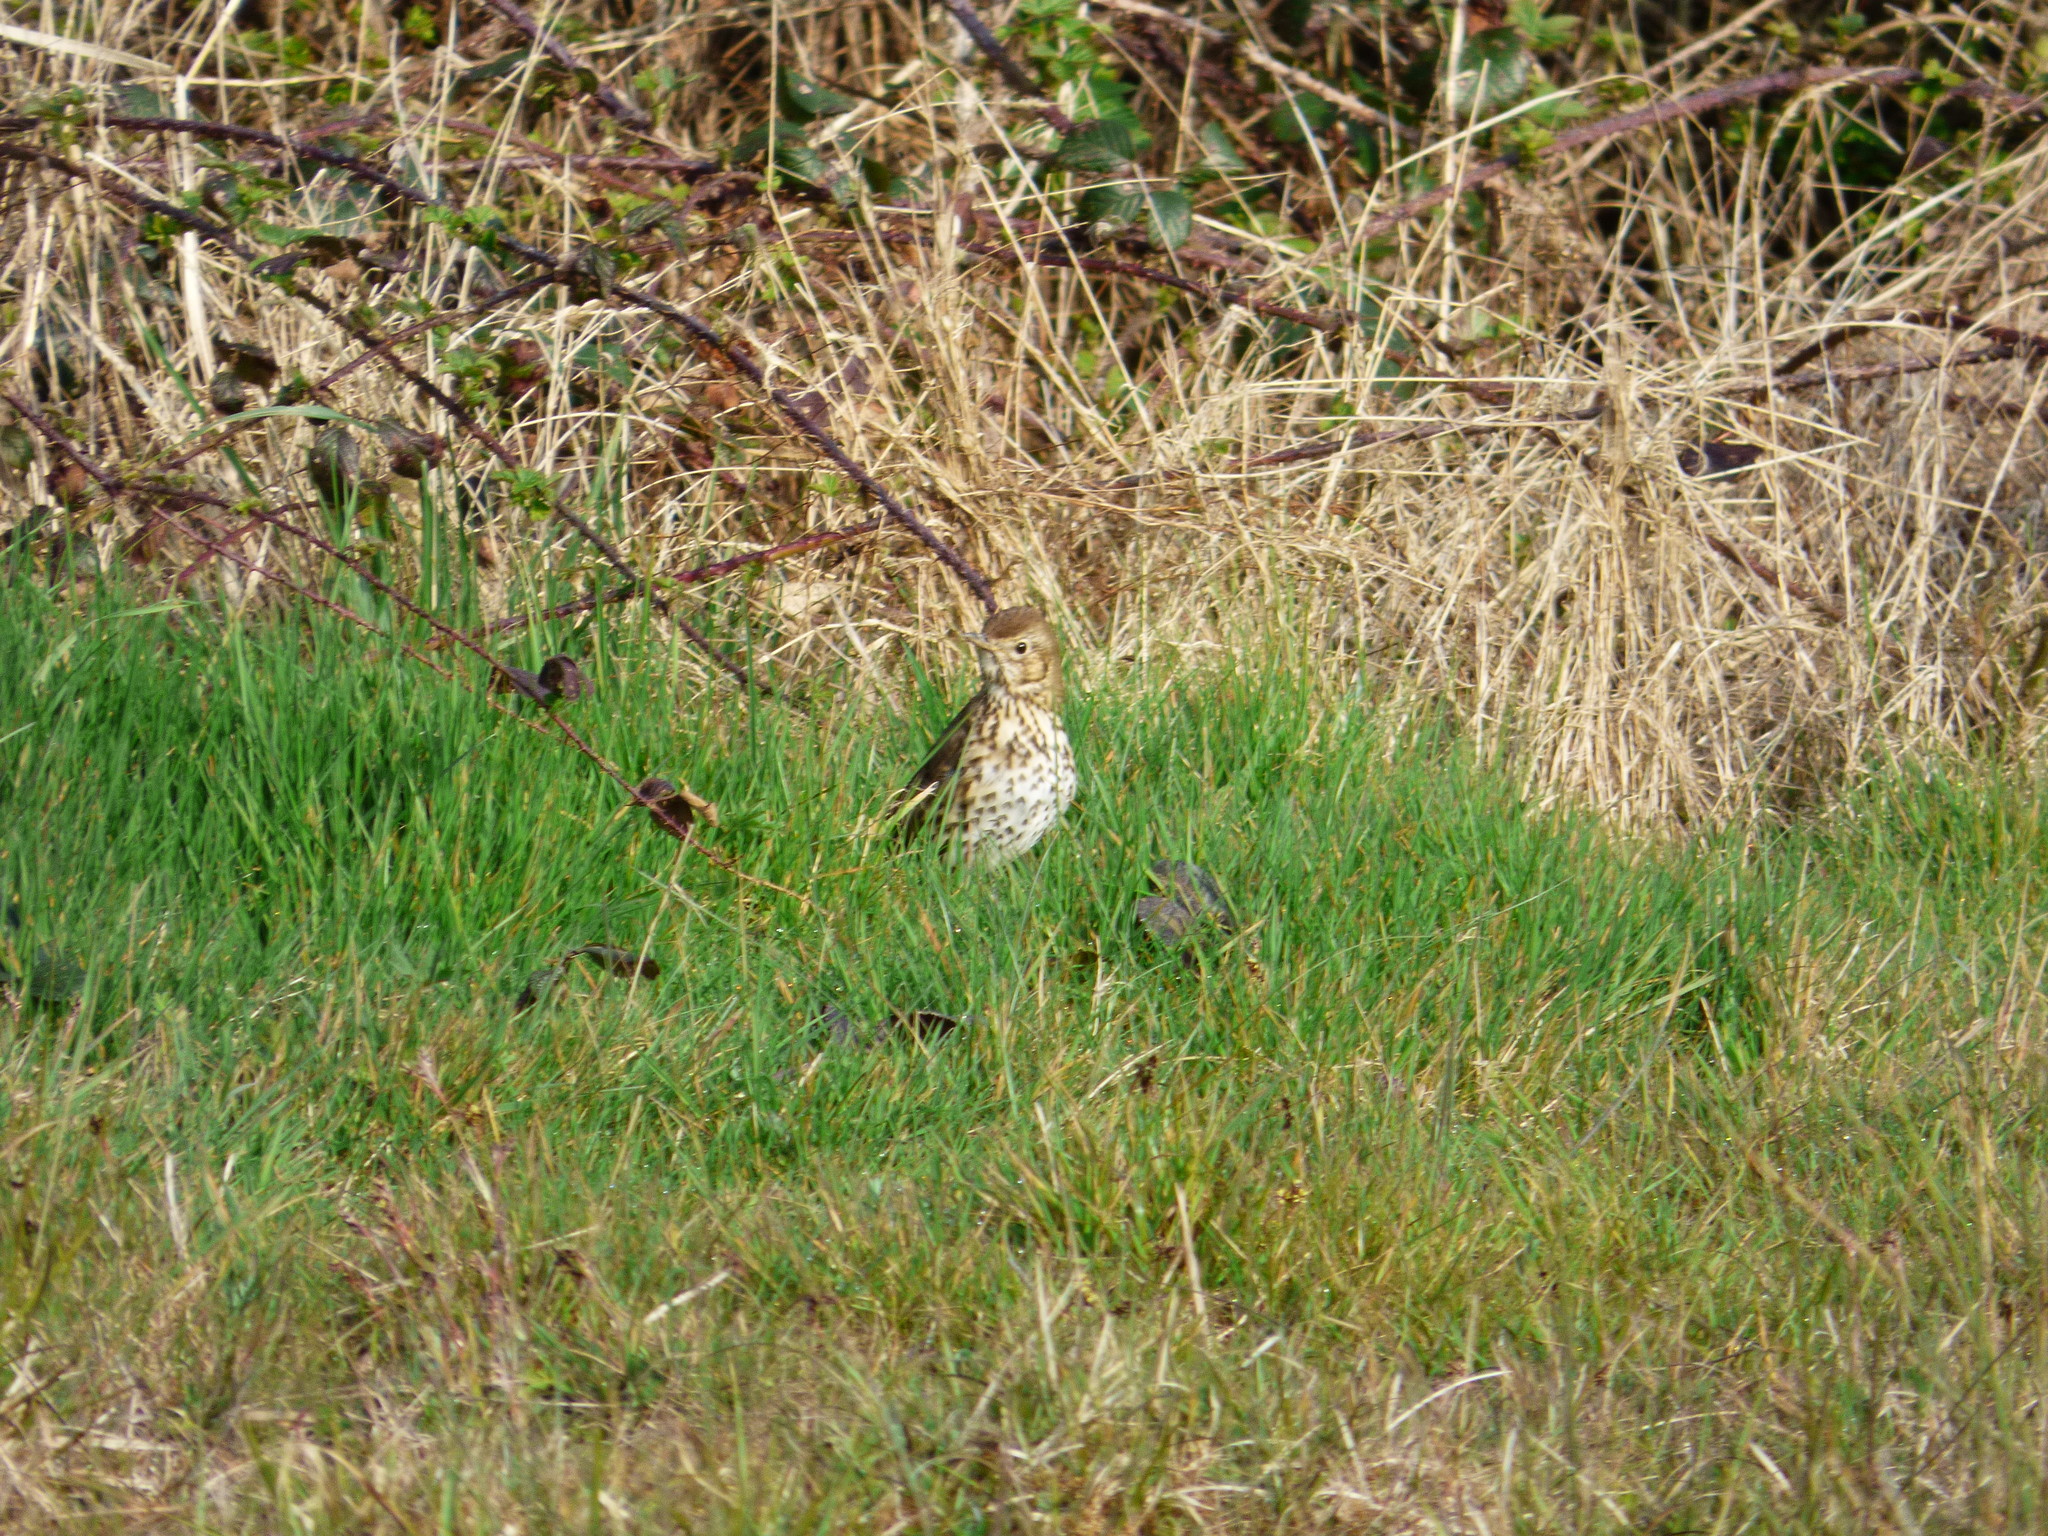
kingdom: Animalia
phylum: Chordata
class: Aves
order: Passeriformes
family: Turdidae
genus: Turdus
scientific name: Turdus philomelos
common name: Song thrush
